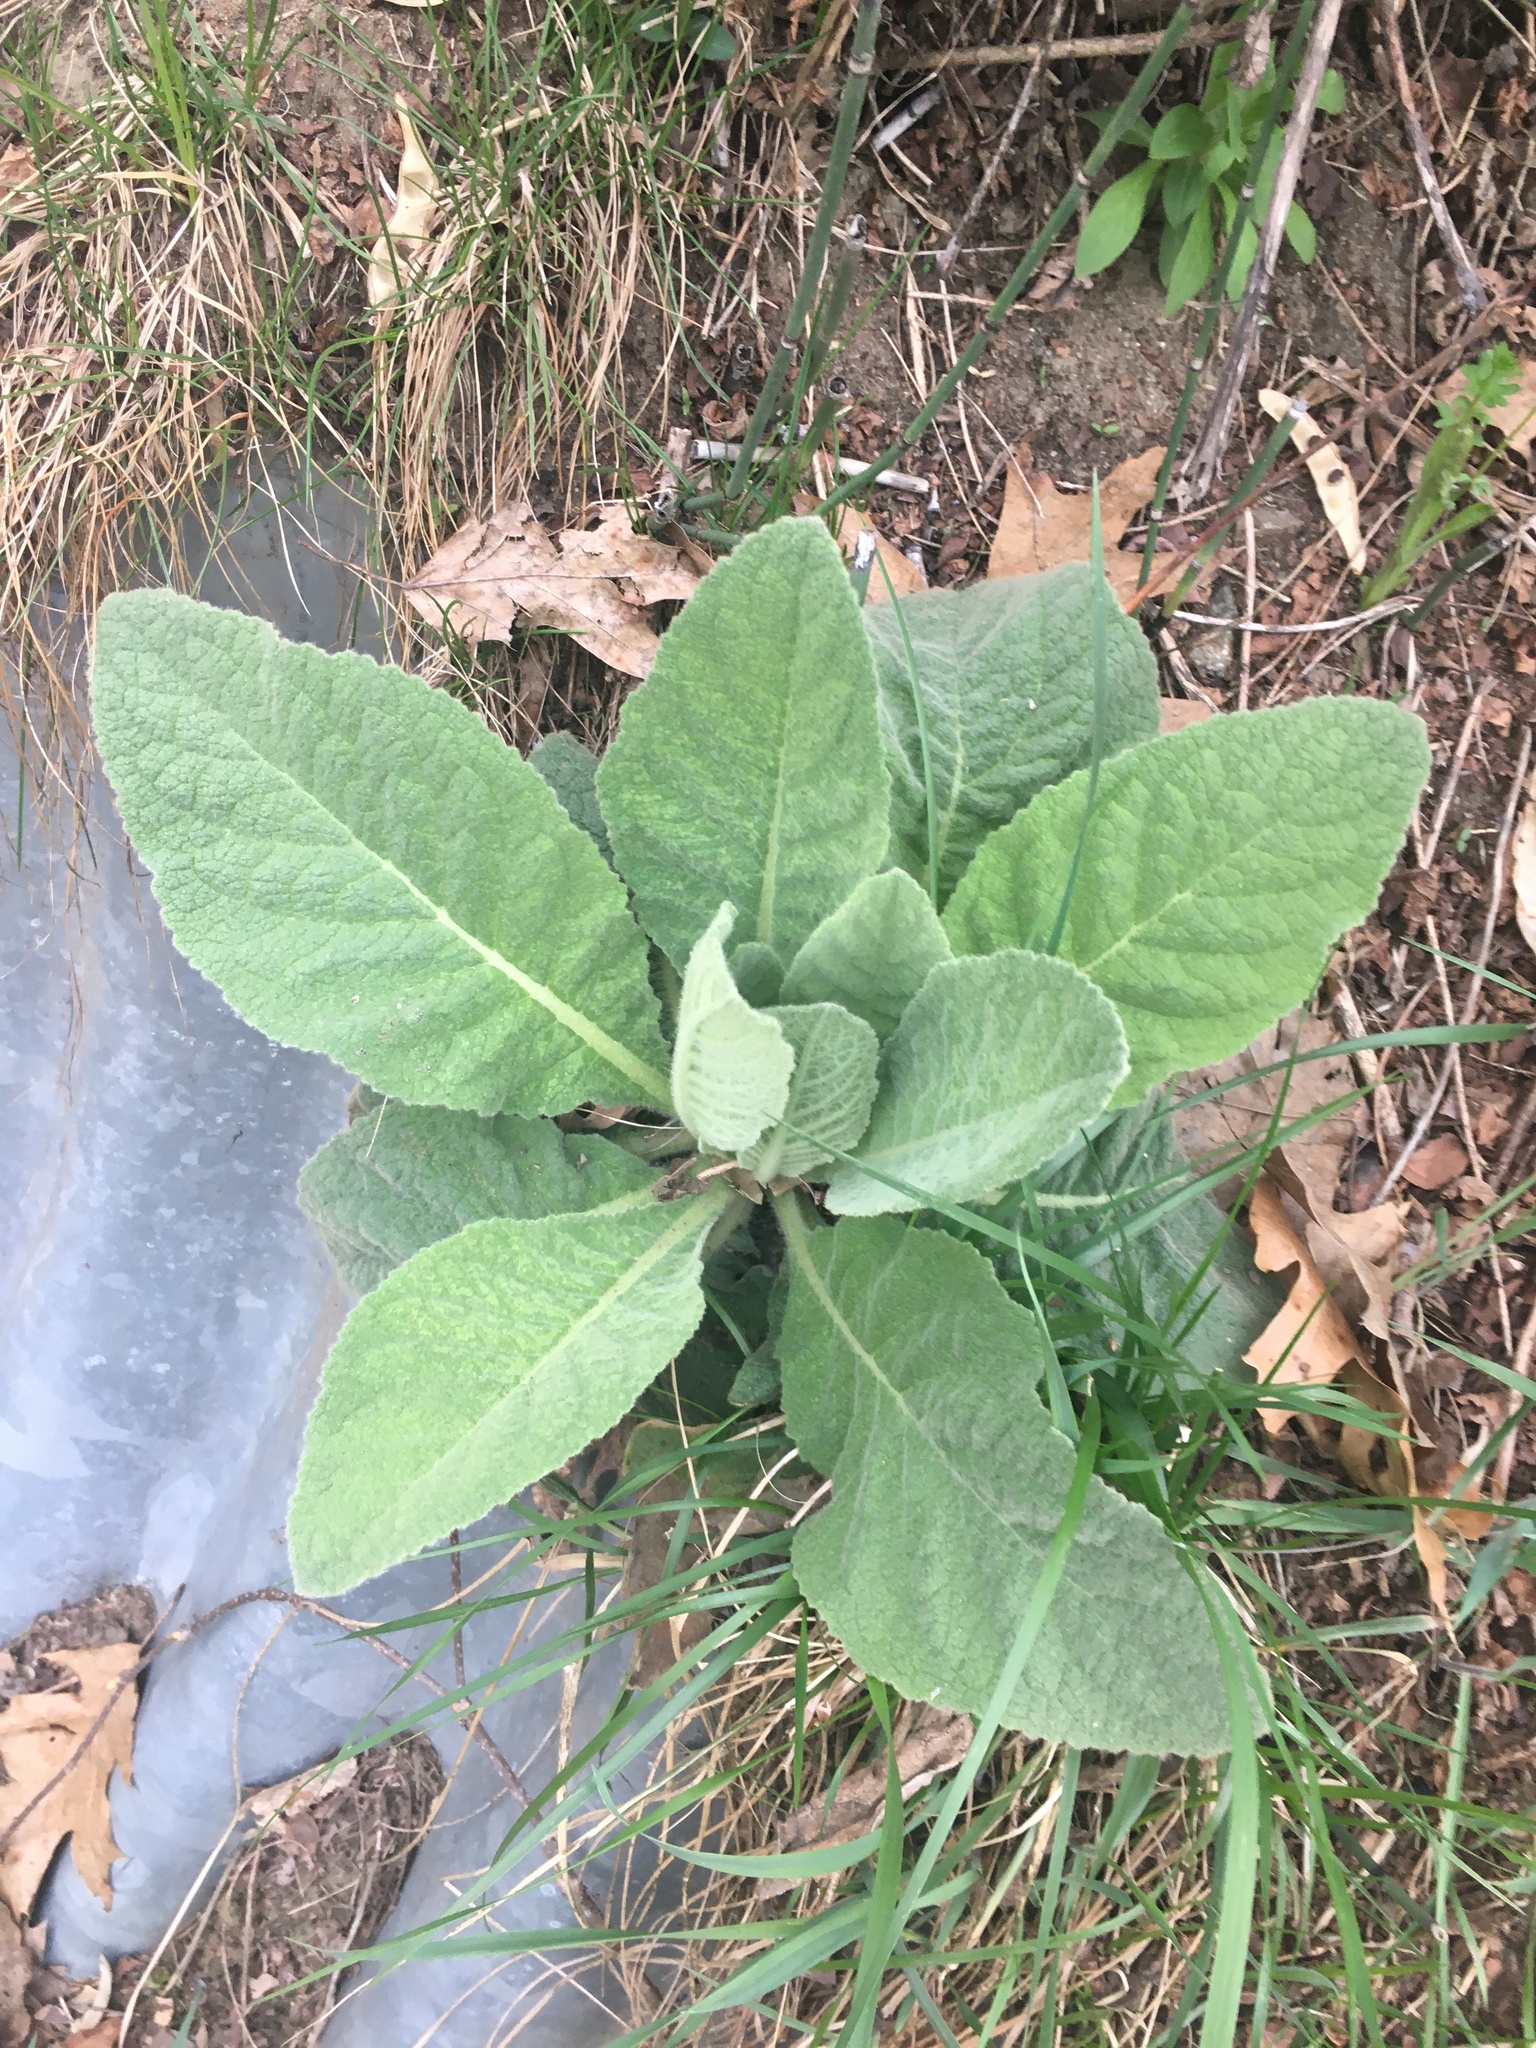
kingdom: Plantae
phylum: Tracheophyta
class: Magnoliopsida
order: Lamiales
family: Scrophulariaceae
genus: Verbascum
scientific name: Verbascum thapsus
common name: Common mullein
